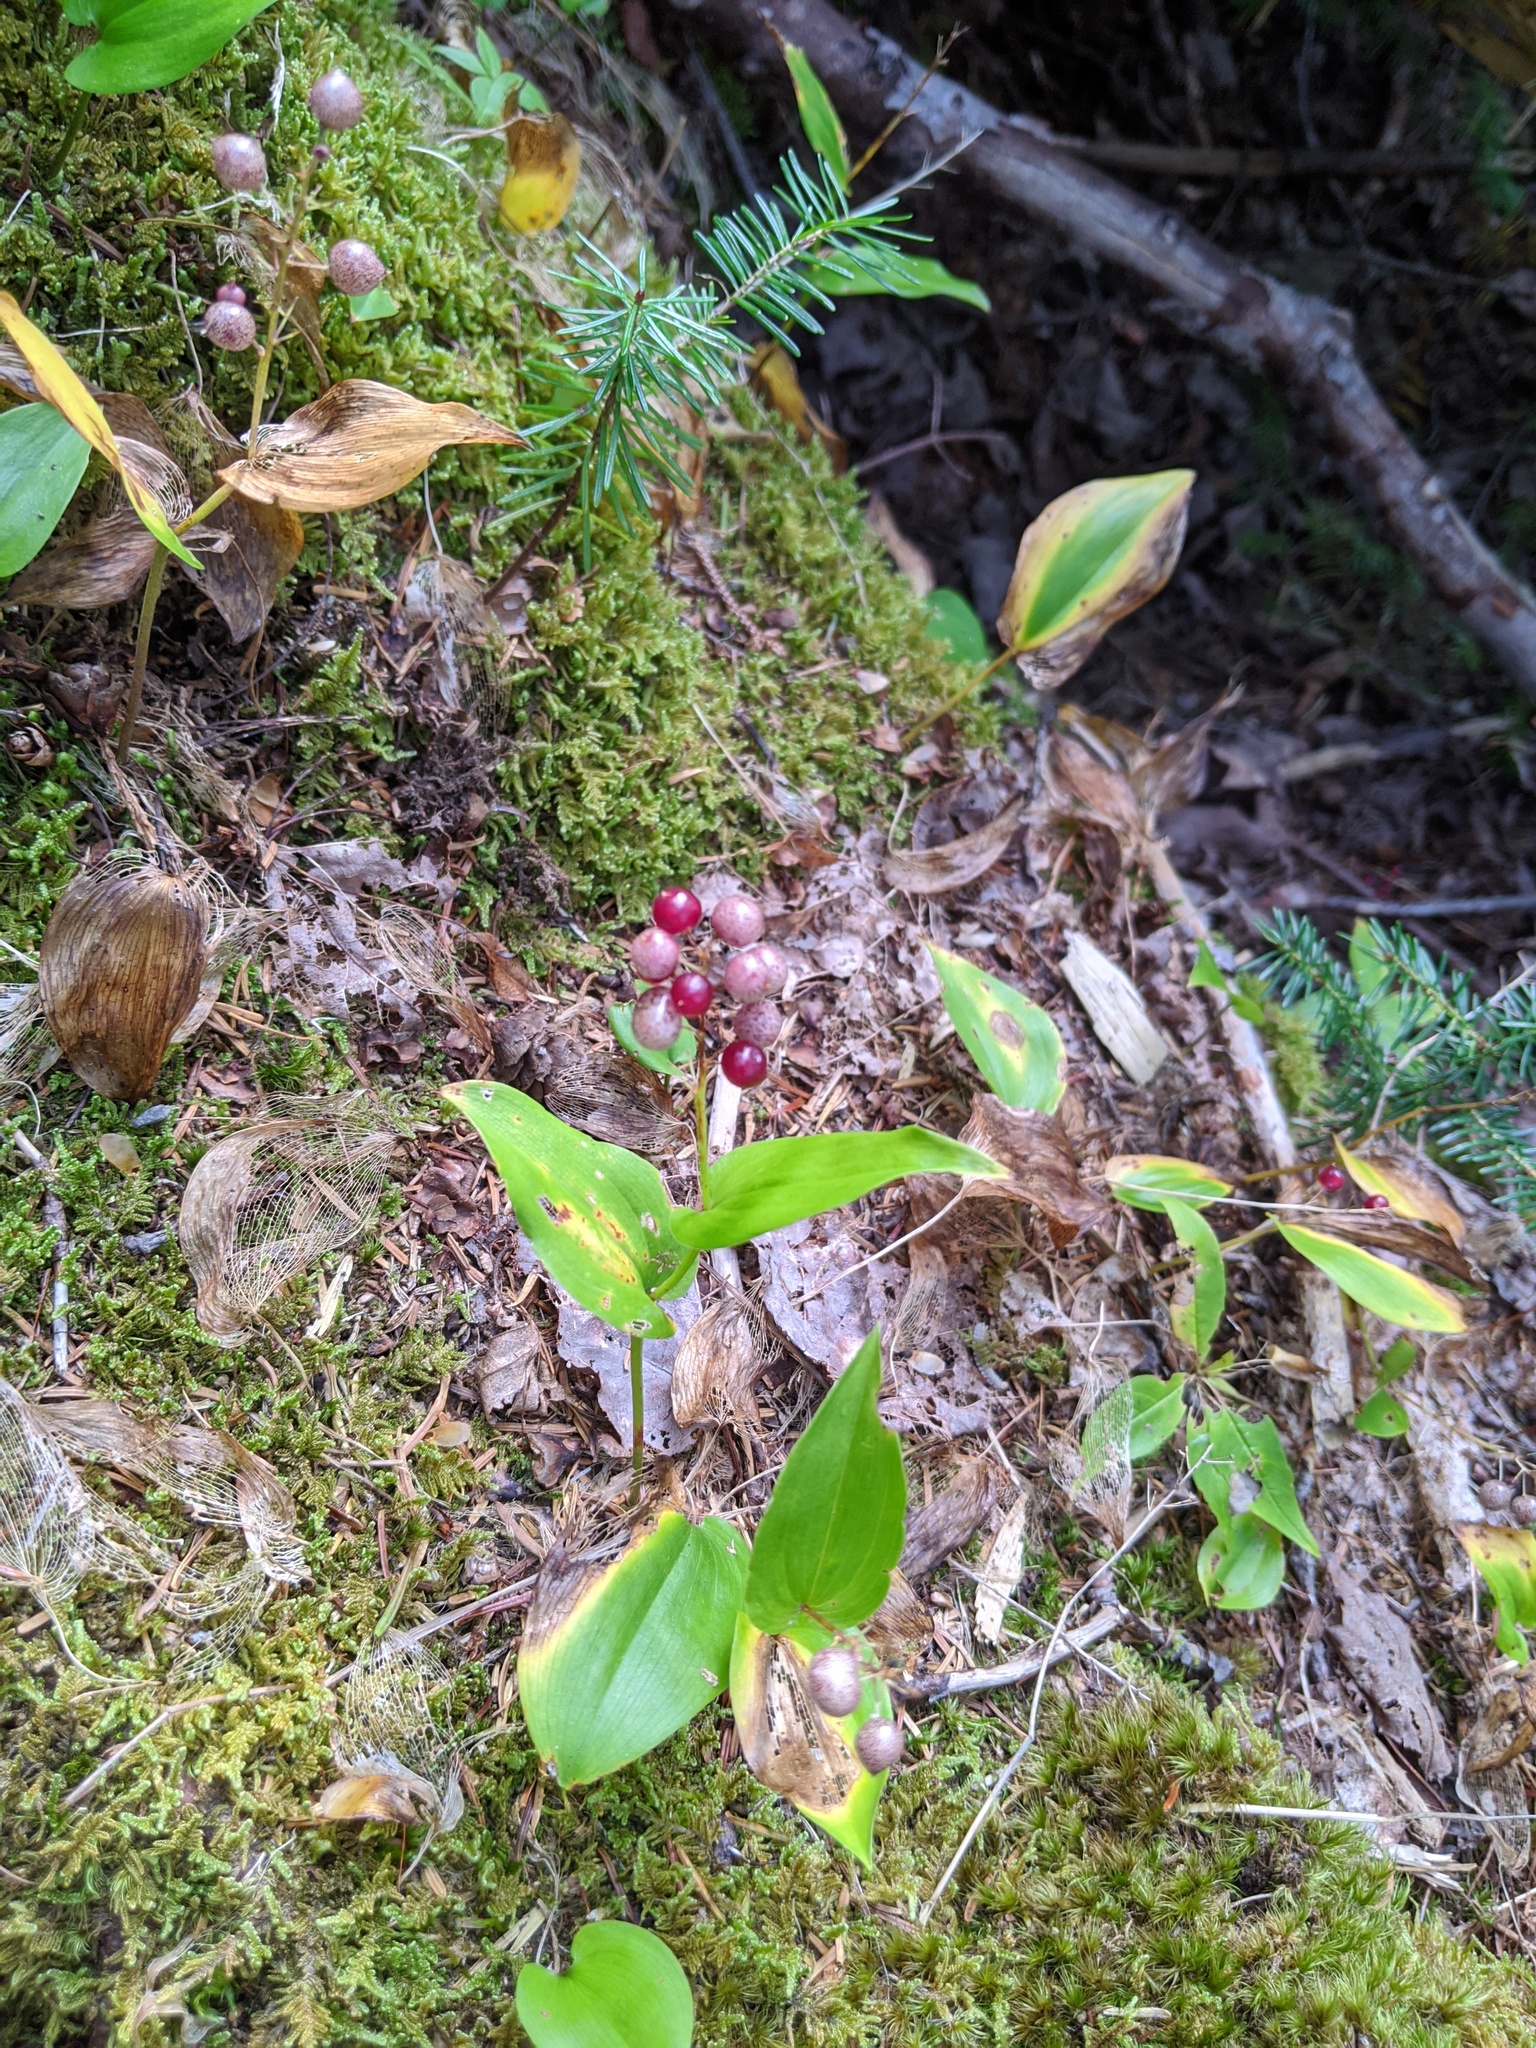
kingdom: Plantae
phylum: Tracheophyta
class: Liliopsida
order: Asparagales
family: Asparagaceae
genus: Maianthemum
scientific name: Maianthemum canadense
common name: False lily-of-the-valley
